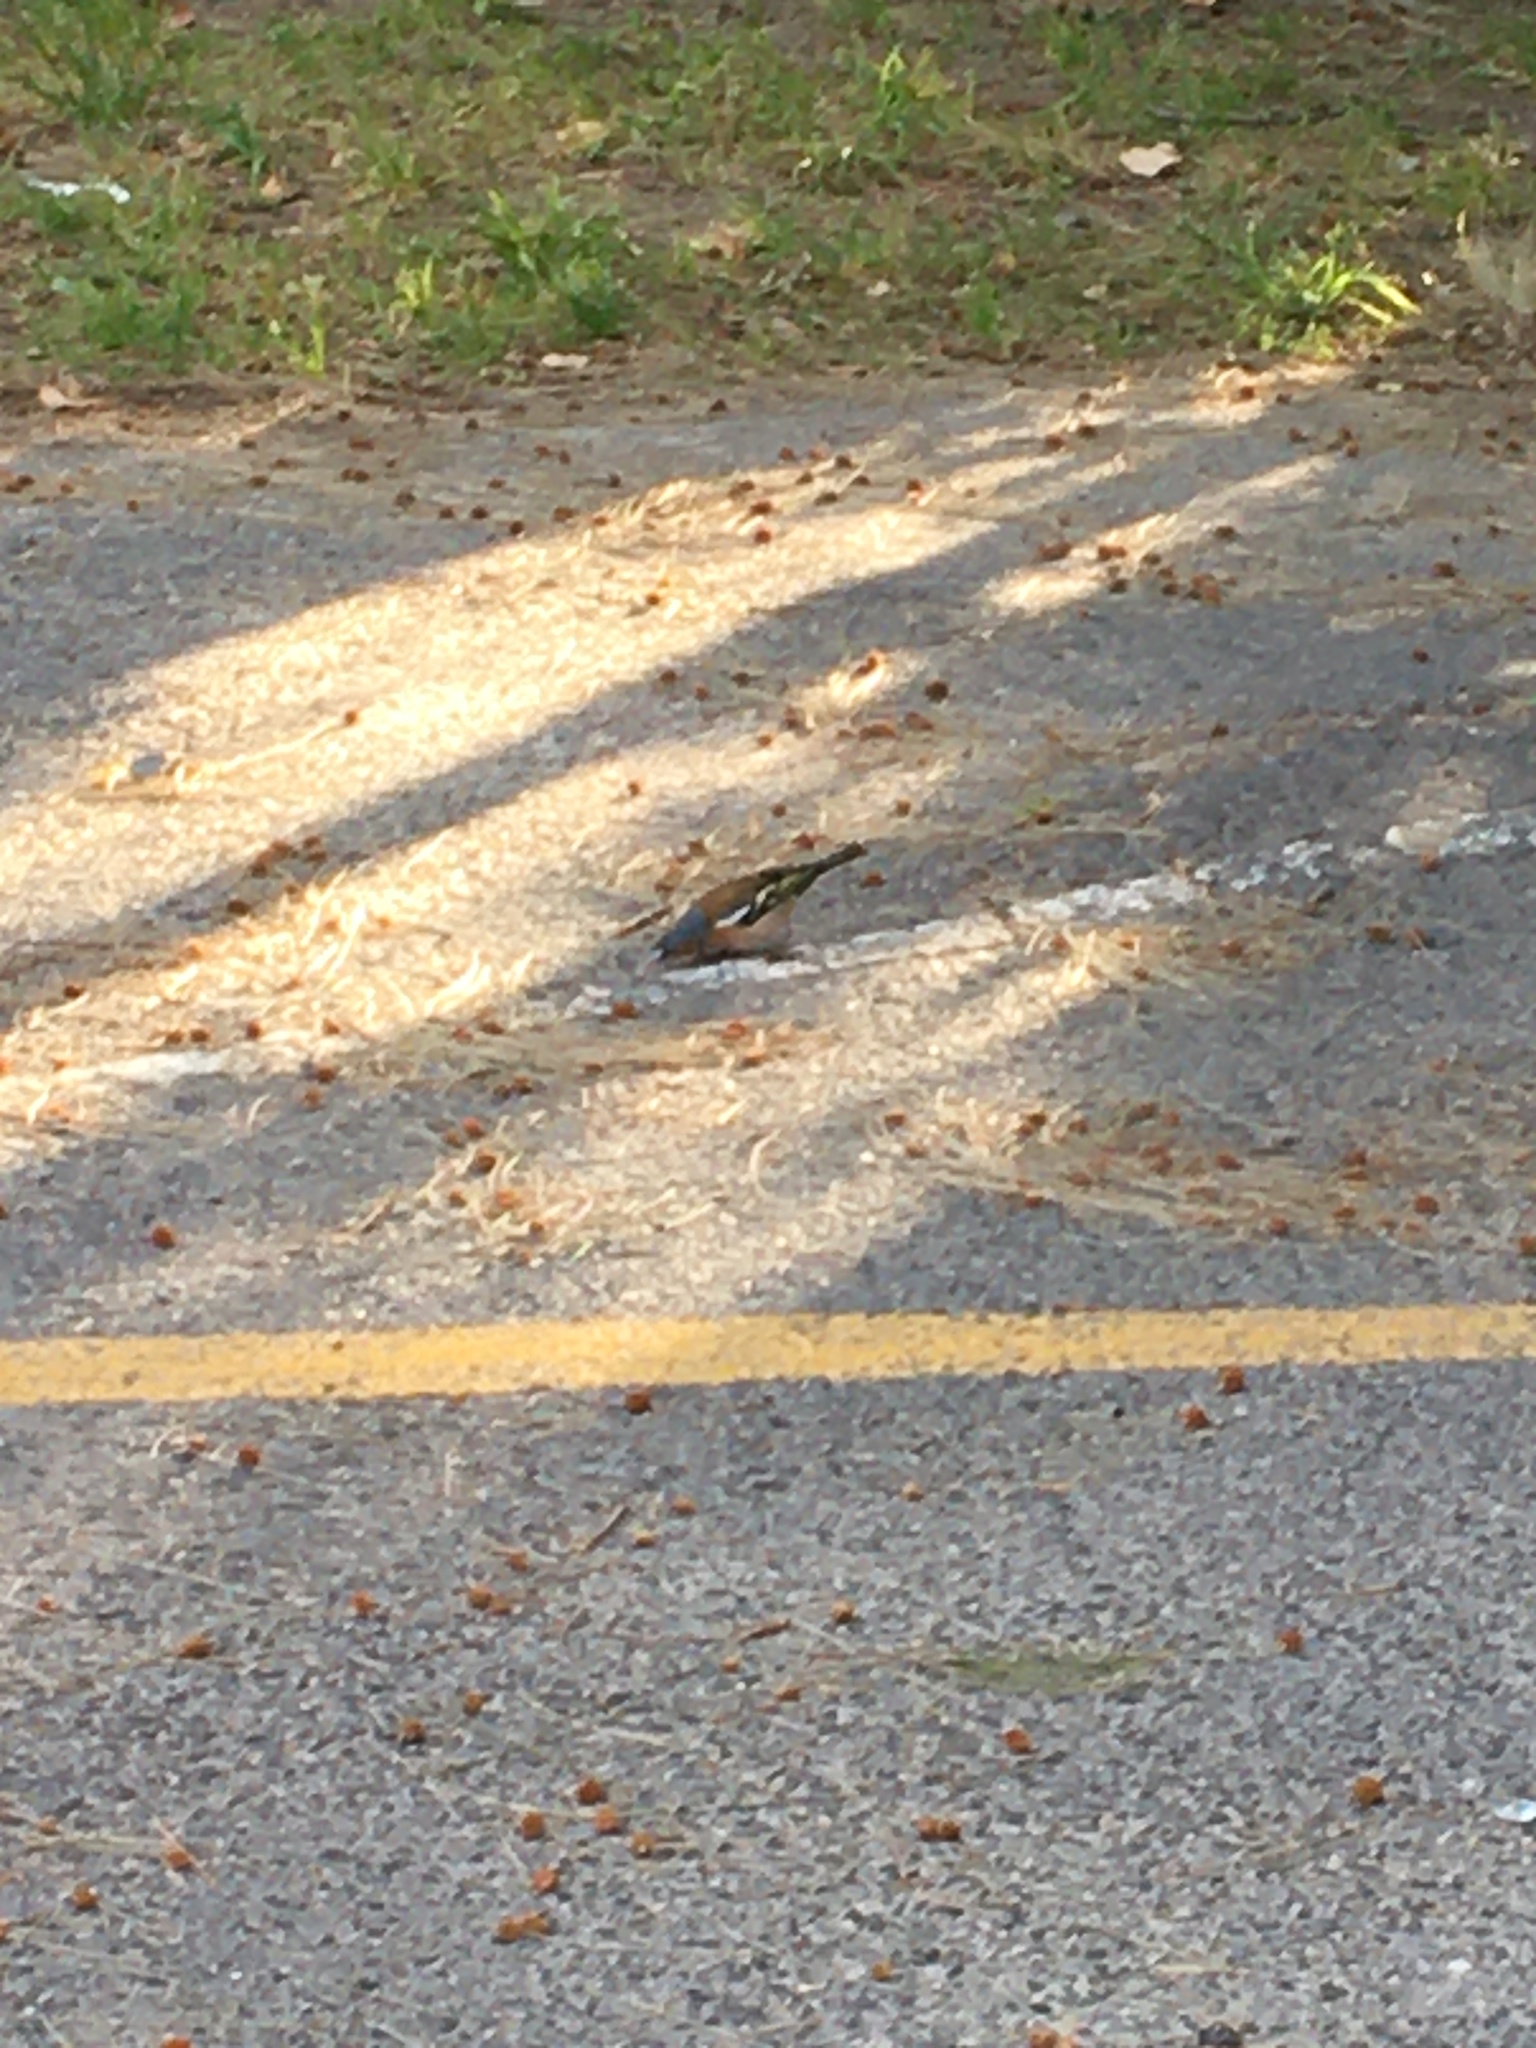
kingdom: Animalia
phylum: Chordata
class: Aves
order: Passeriformes
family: Fringillidae
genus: Fringilla
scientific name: Fringilla coelebs
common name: Common chaffinch
